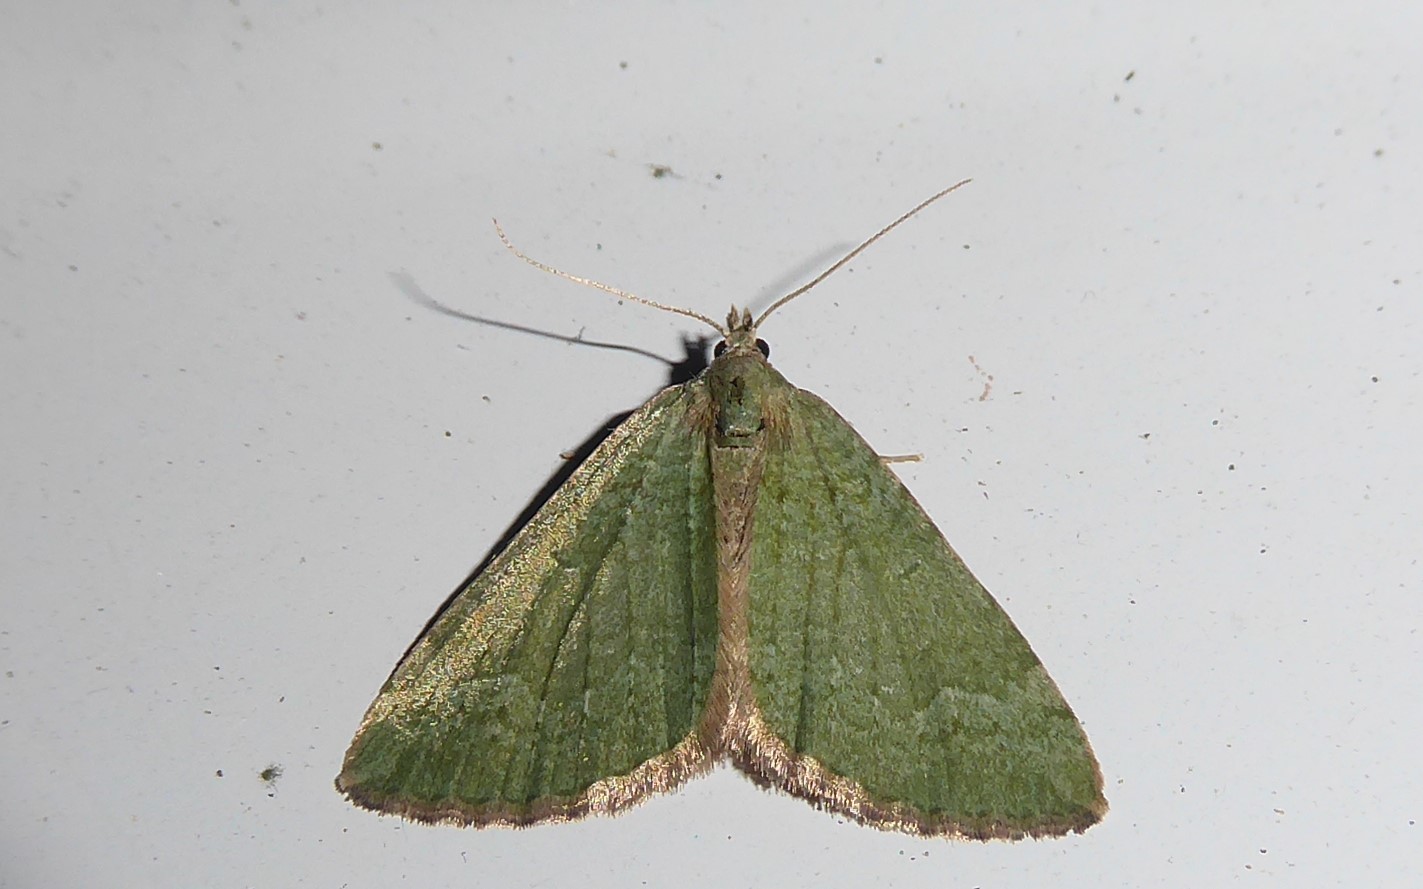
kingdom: Animalia
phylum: Arthropoda
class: Insecta
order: Lepidoptera
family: Geometridae
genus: Epyaxa
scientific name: Epyaxa rosearia
